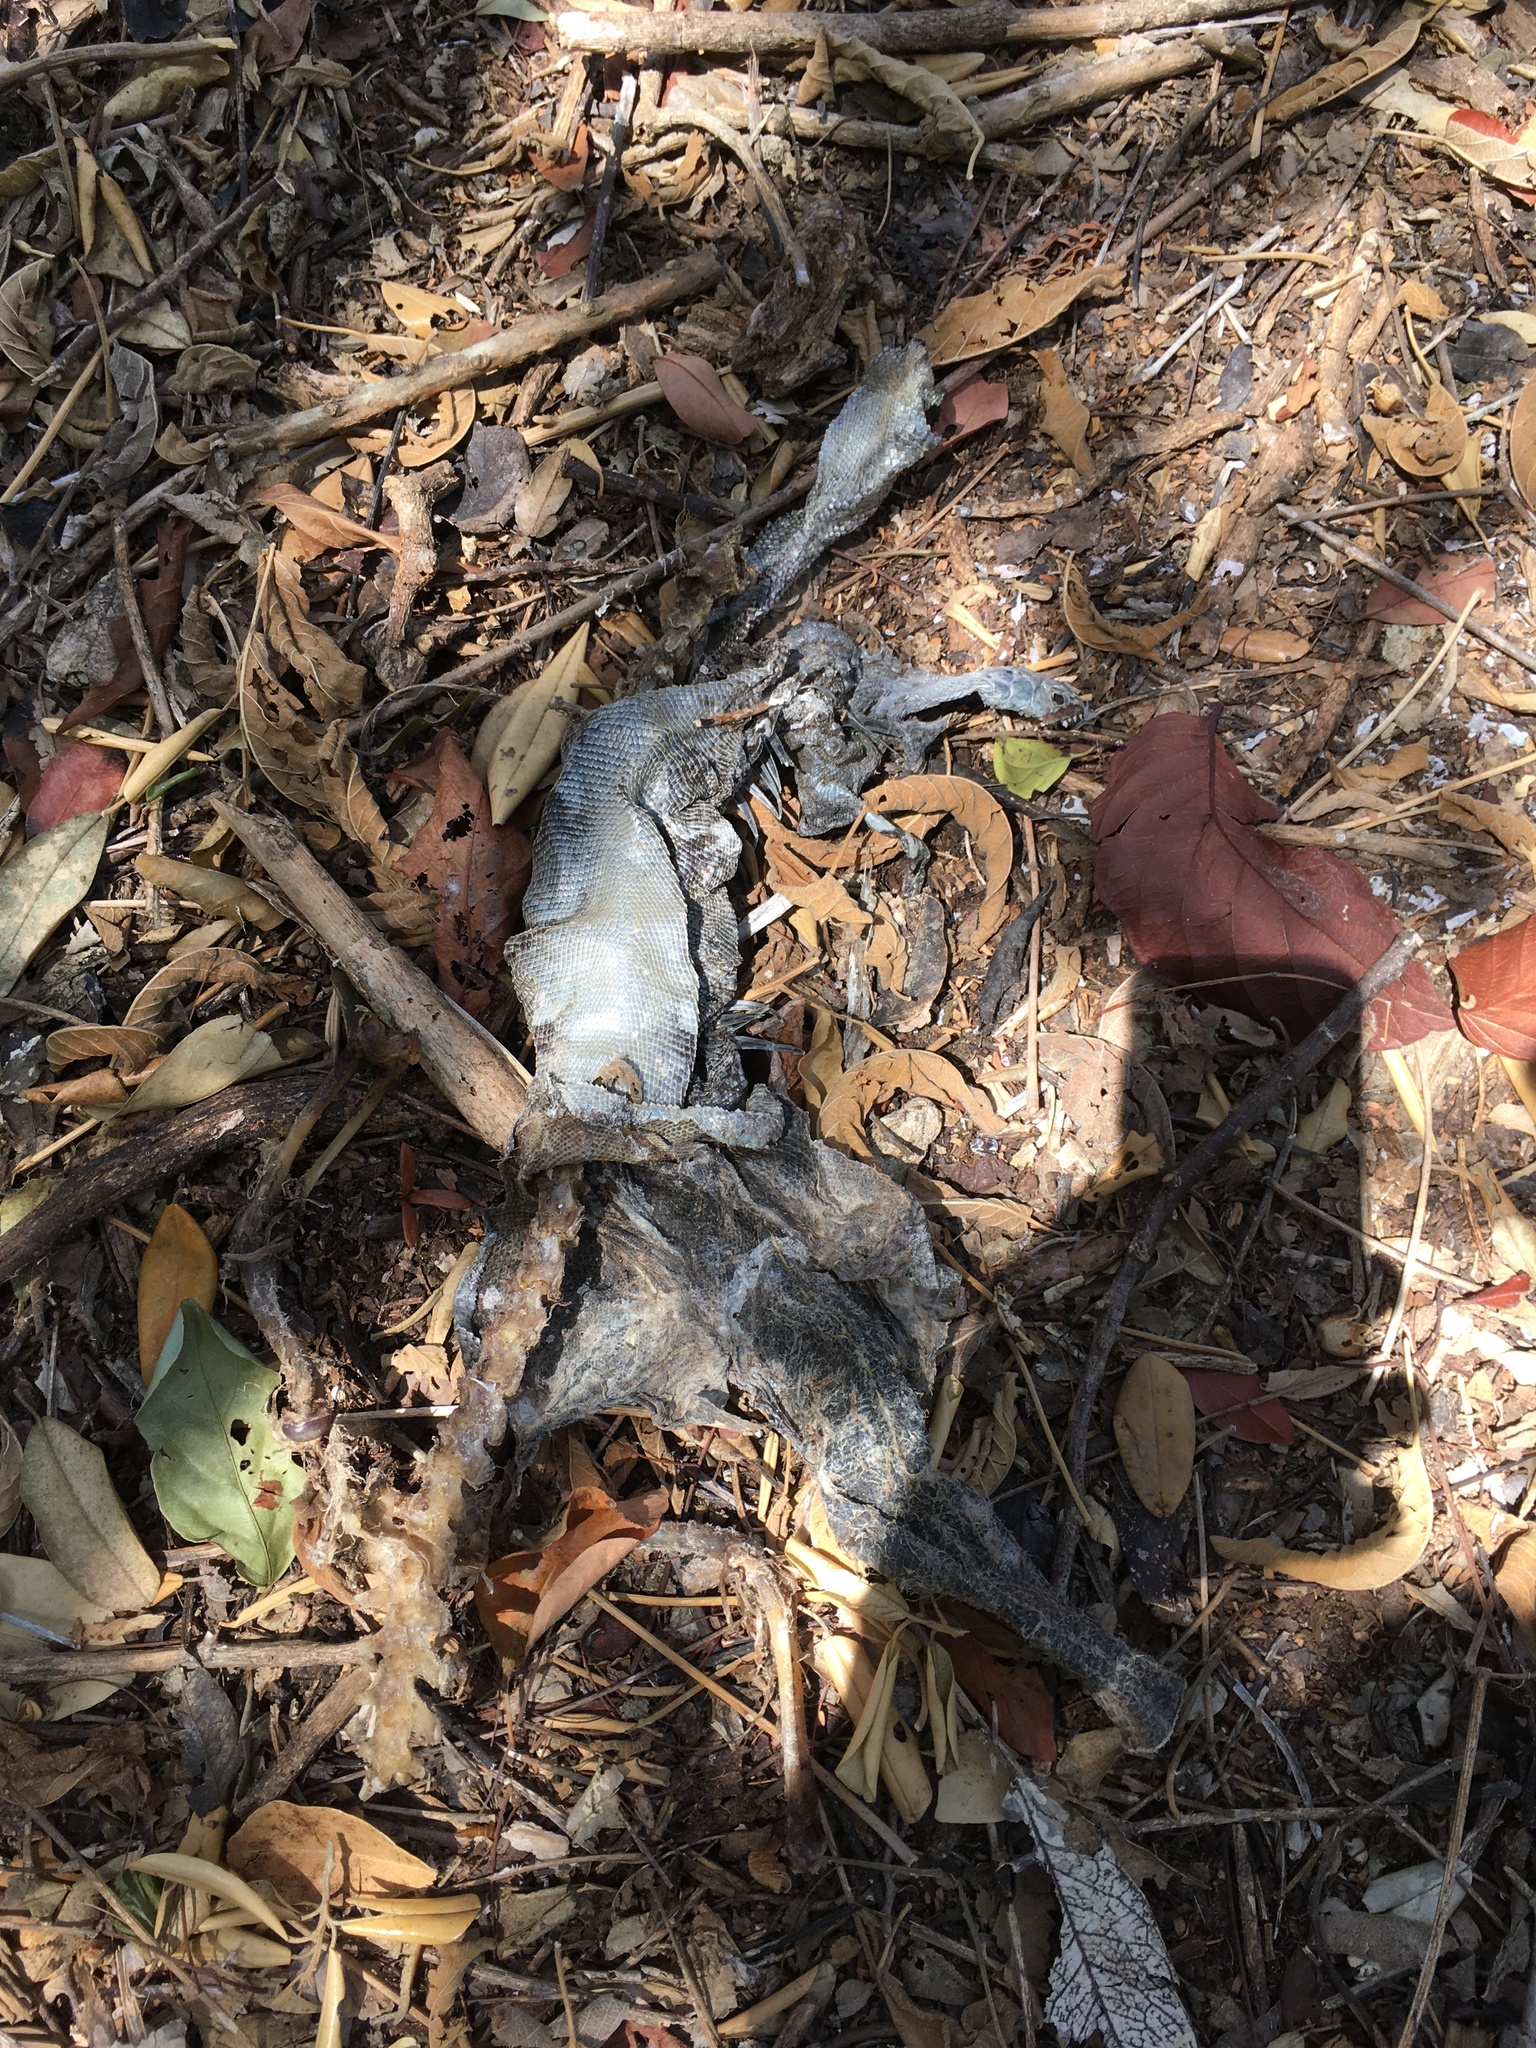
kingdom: Animalia
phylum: Chordata
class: Squamata
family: Iguanidae
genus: Iguana
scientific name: Iguana iguana
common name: Green iguana
